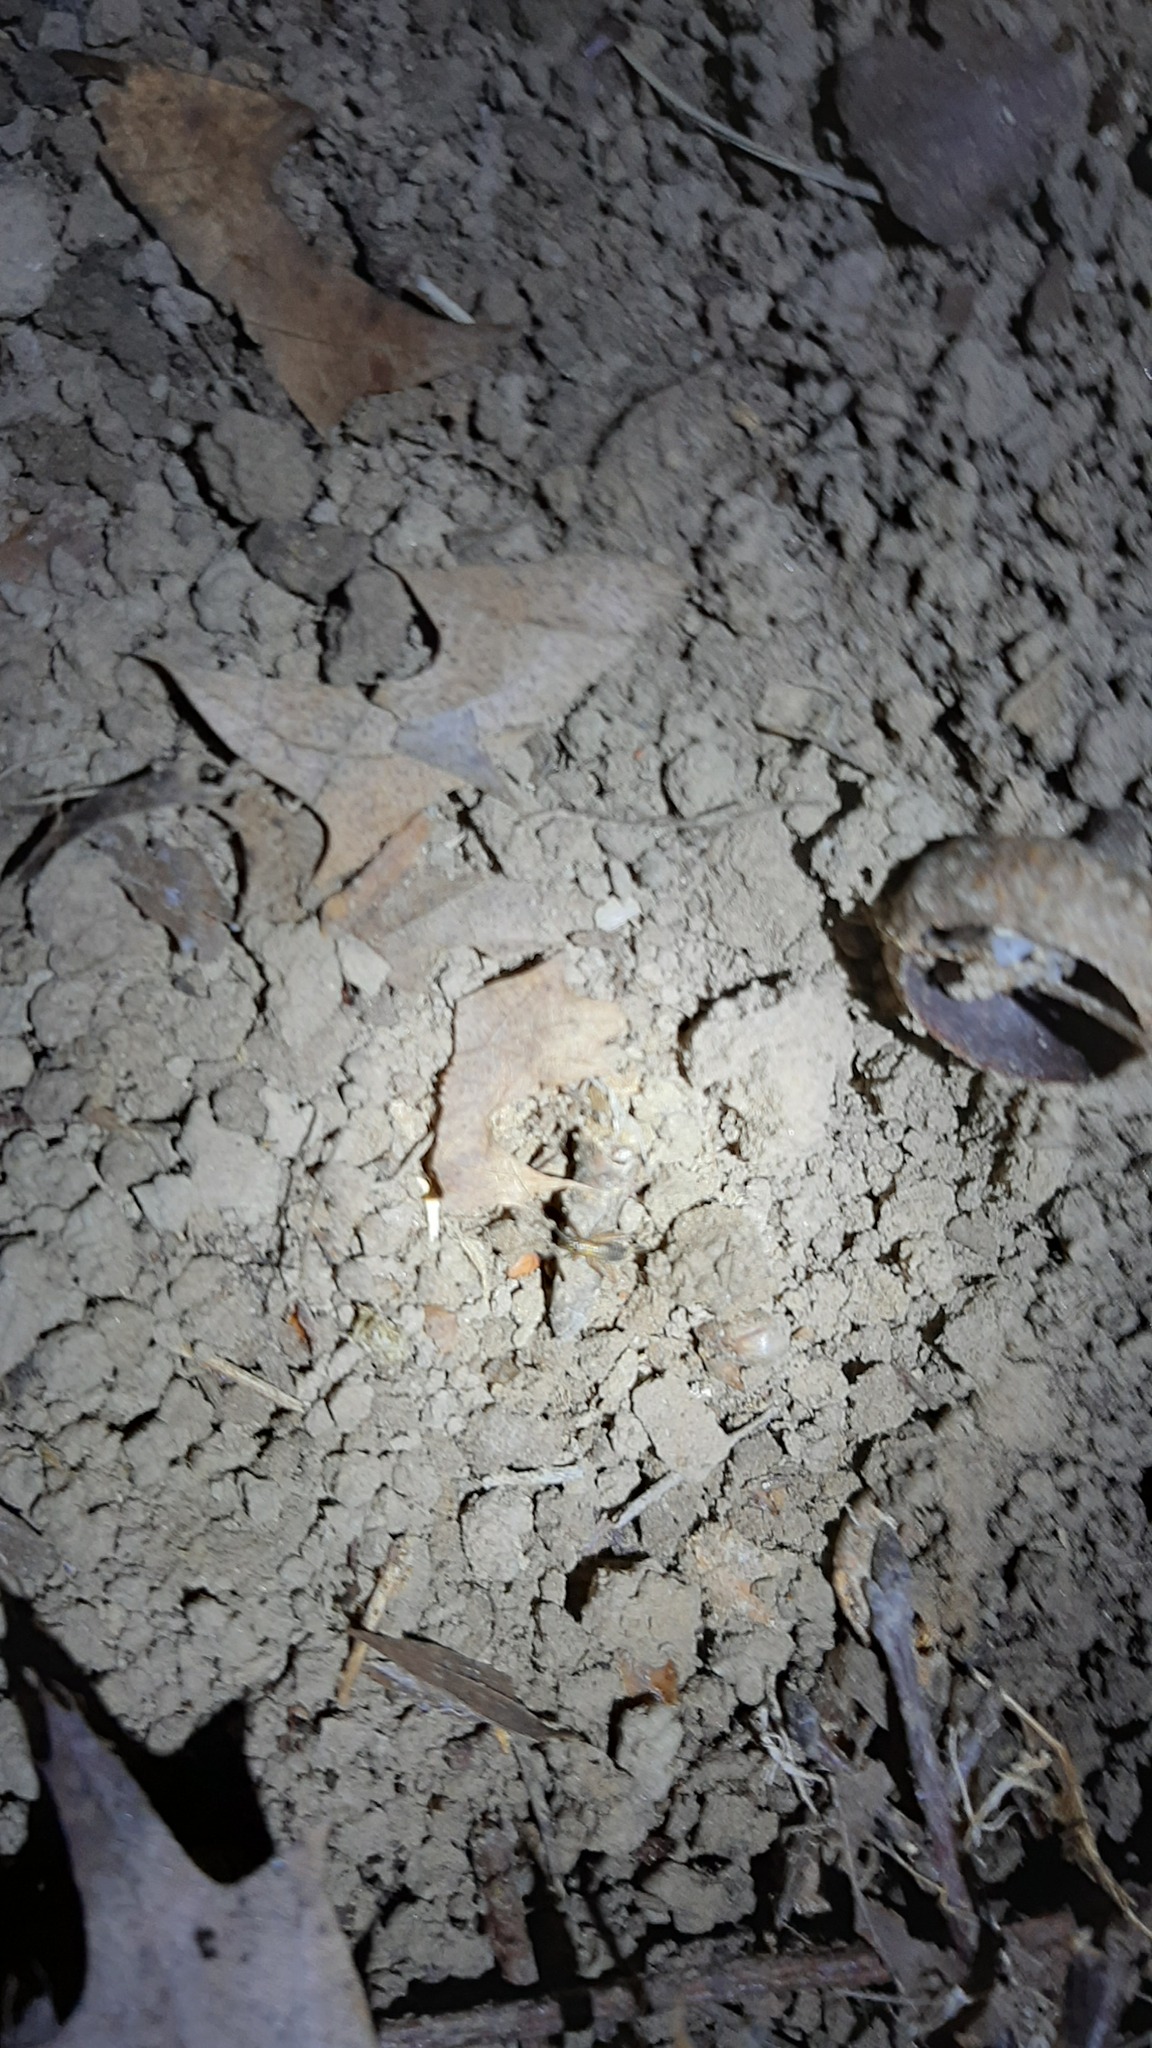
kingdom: Animalia
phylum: Arthropoda
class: Insecta
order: Orthoptera
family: Trigonidiidae
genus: Nemobius
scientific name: Nemobius sylvestris
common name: Wood-cricket
